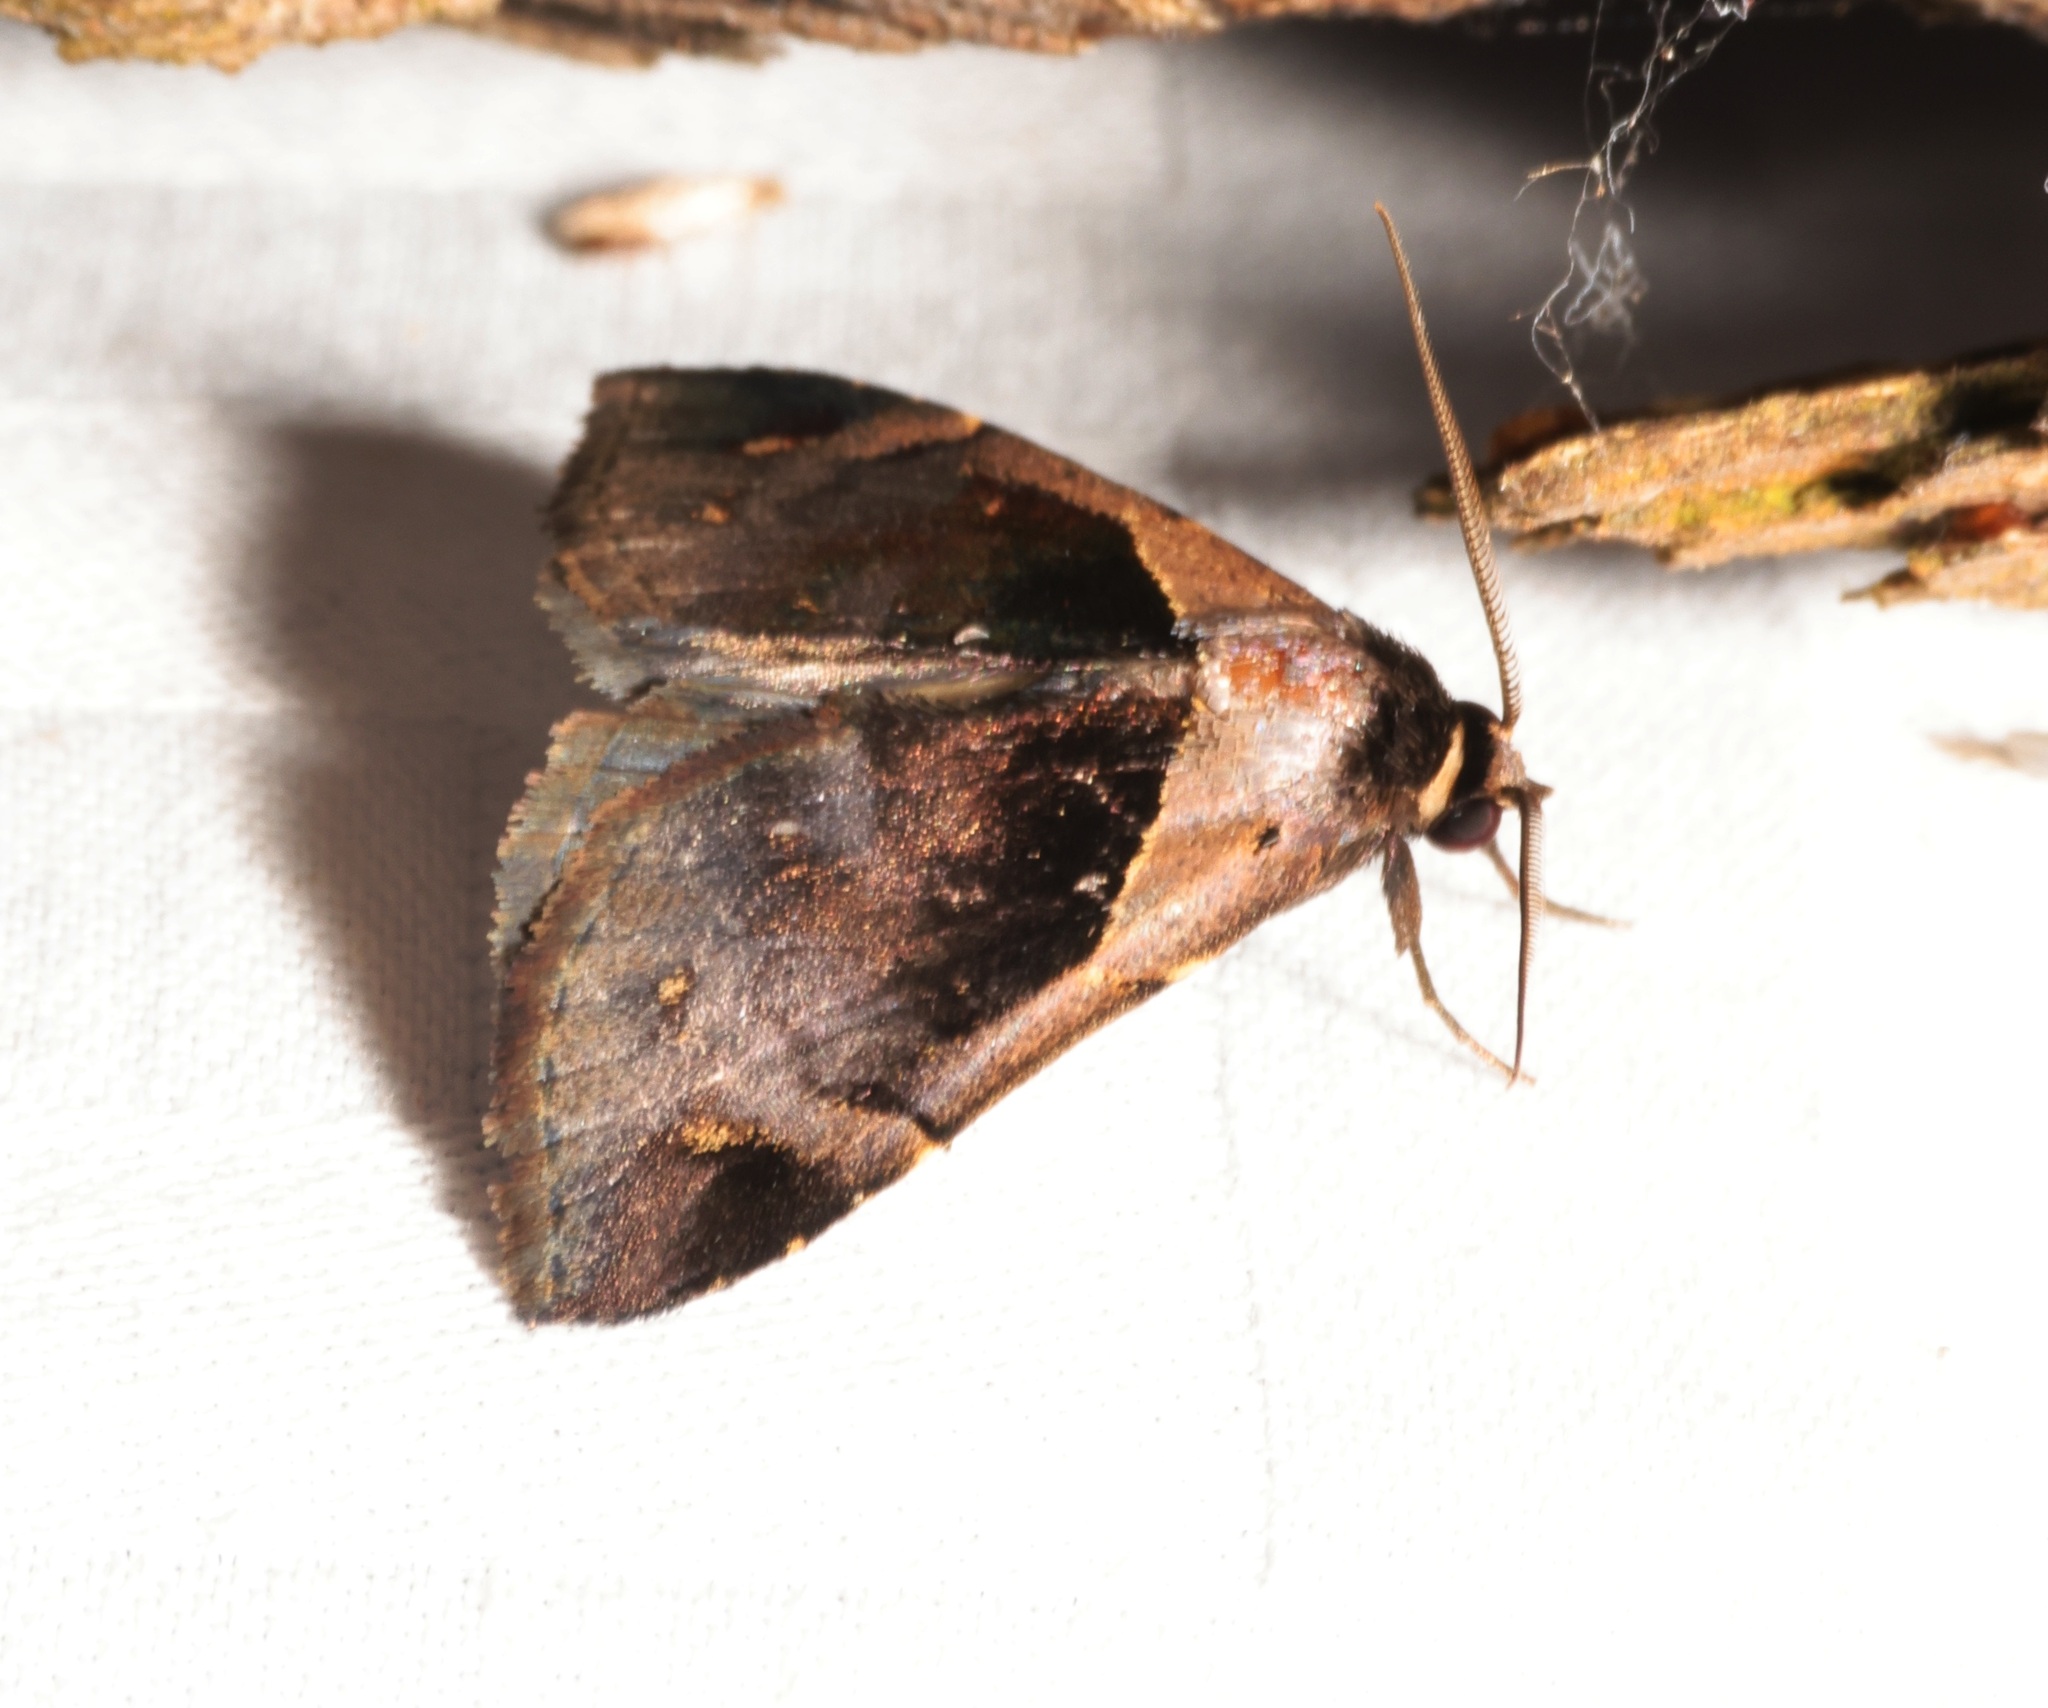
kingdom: Animalia
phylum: Arthropoda
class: Insecta
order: Lepidoptera
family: Erebidae
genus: Crithote
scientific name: Crithote prominens
